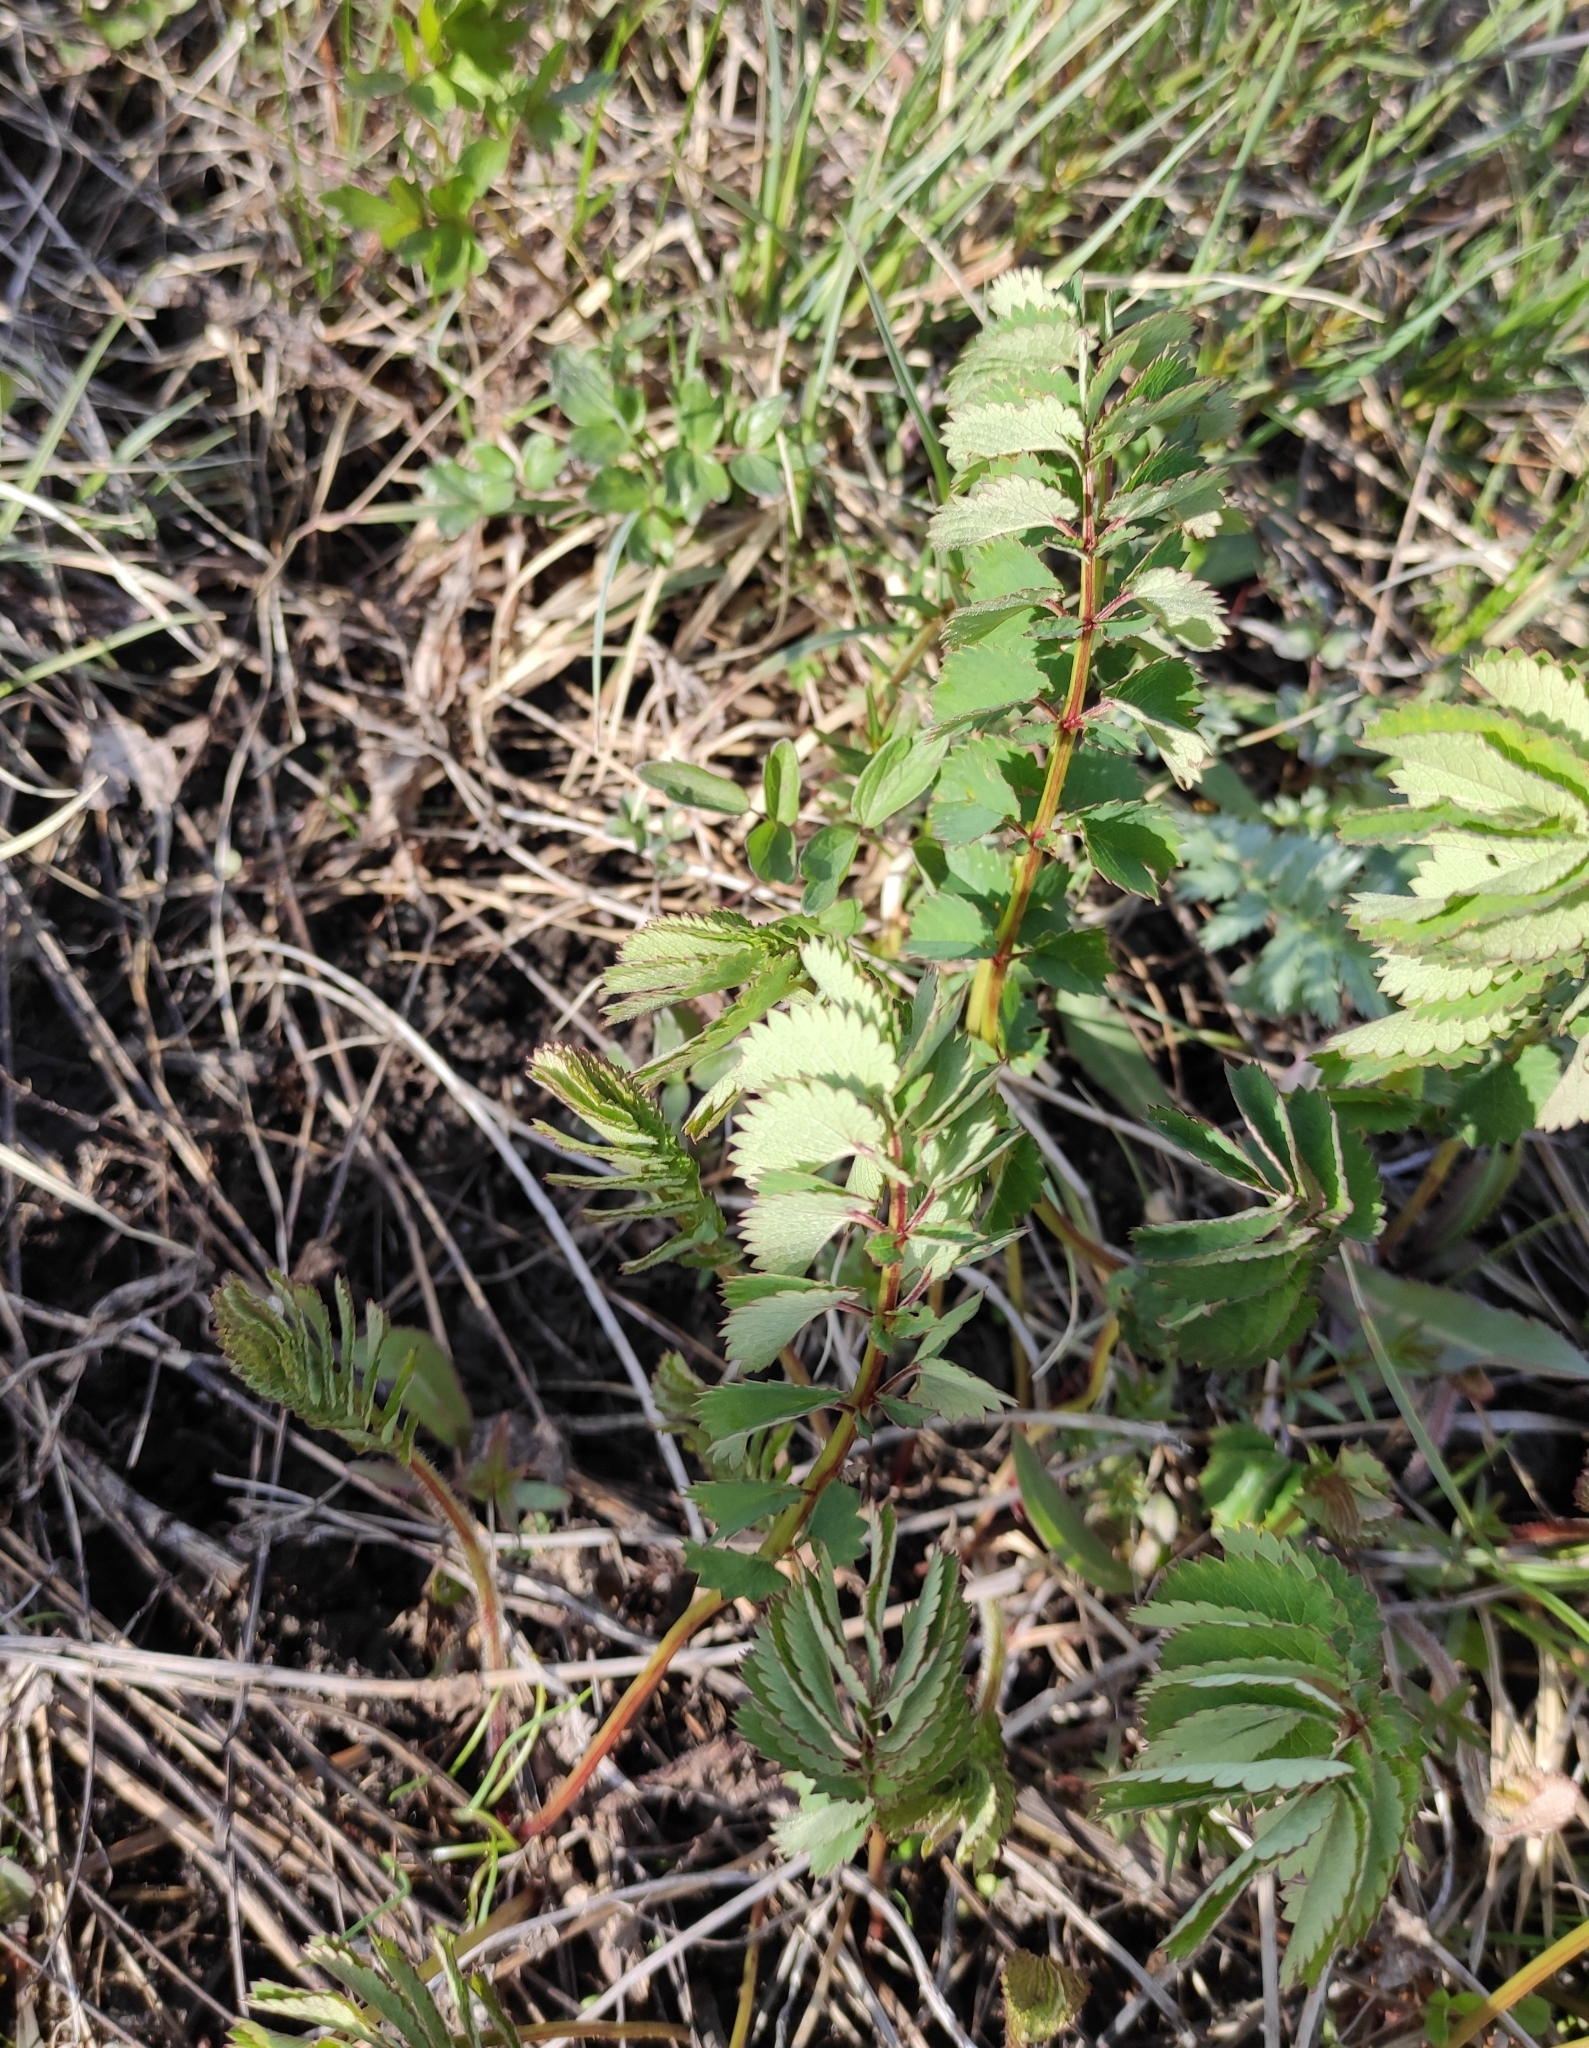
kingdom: Plantae
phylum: Tracheophyta
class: Magnoliopsida
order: Rosales
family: Rosaceae
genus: Sanguisorba
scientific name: Sanguisorba officinalis
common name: Great burnet
